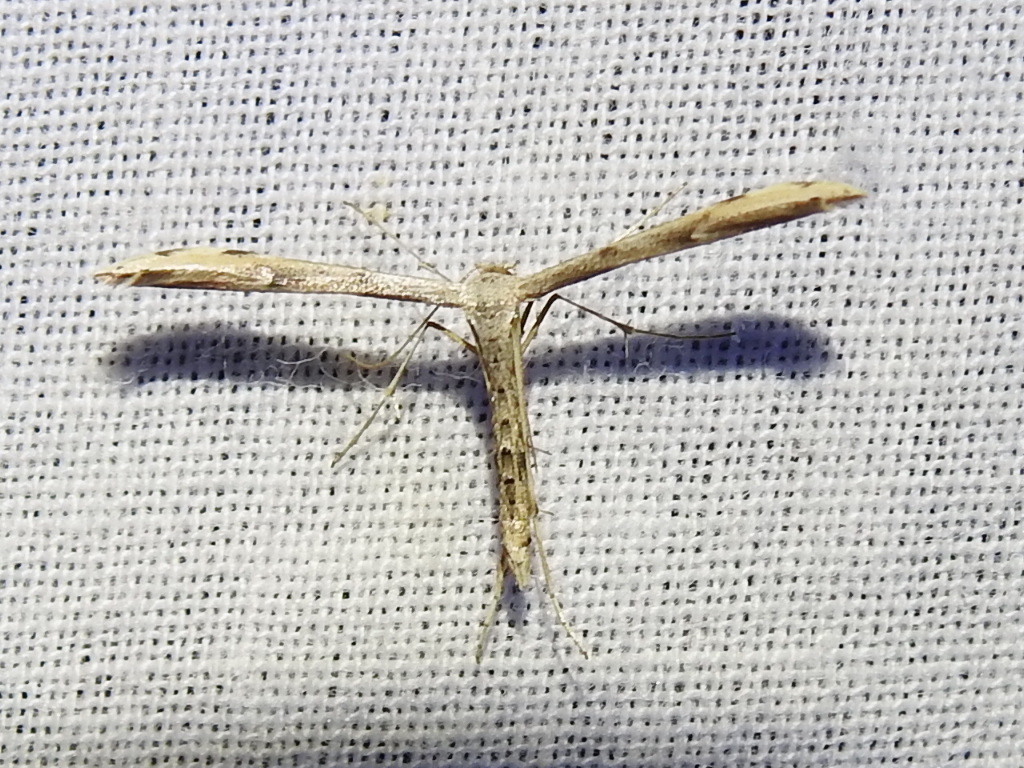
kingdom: Animalia
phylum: Arthropoda
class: Insecta
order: Lepidoptera
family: Pterophoridae
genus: Adaina
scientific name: Adaina ambrosiae
